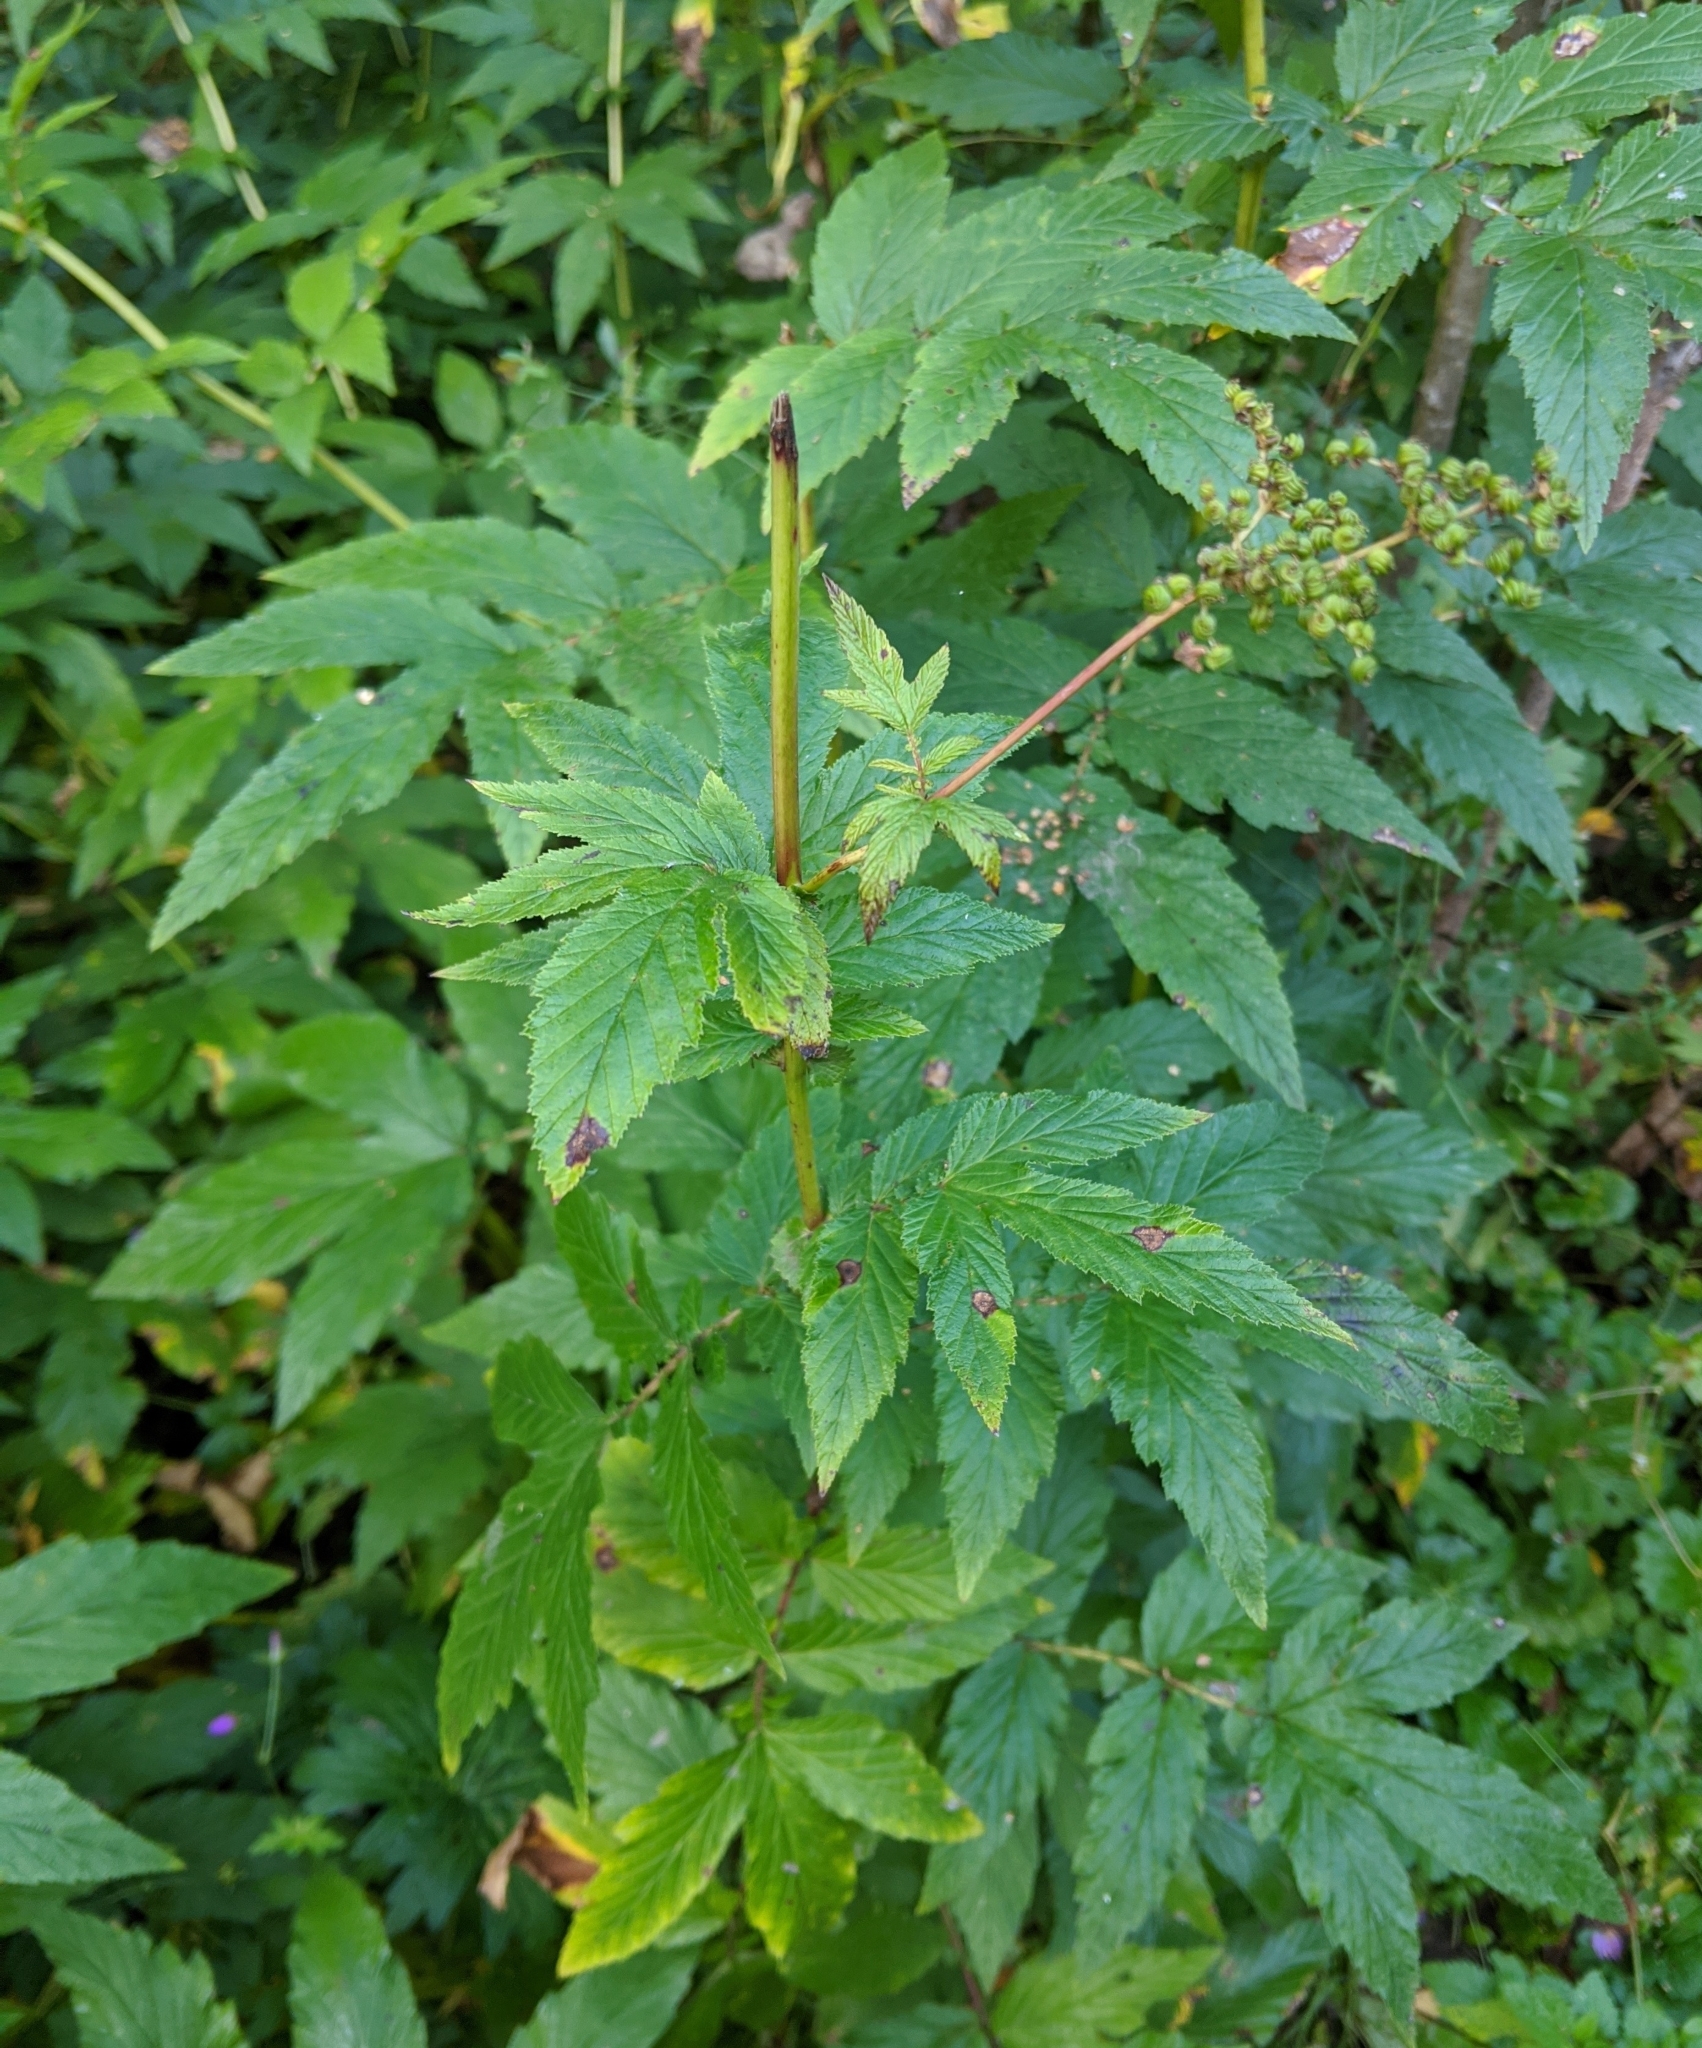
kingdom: Plantae
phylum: Tracheophyta
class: Magnoliopsida
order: Rosales
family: Rosaceae
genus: Filipendula
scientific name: Filipendula ulmaria
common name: Meadowsweet
